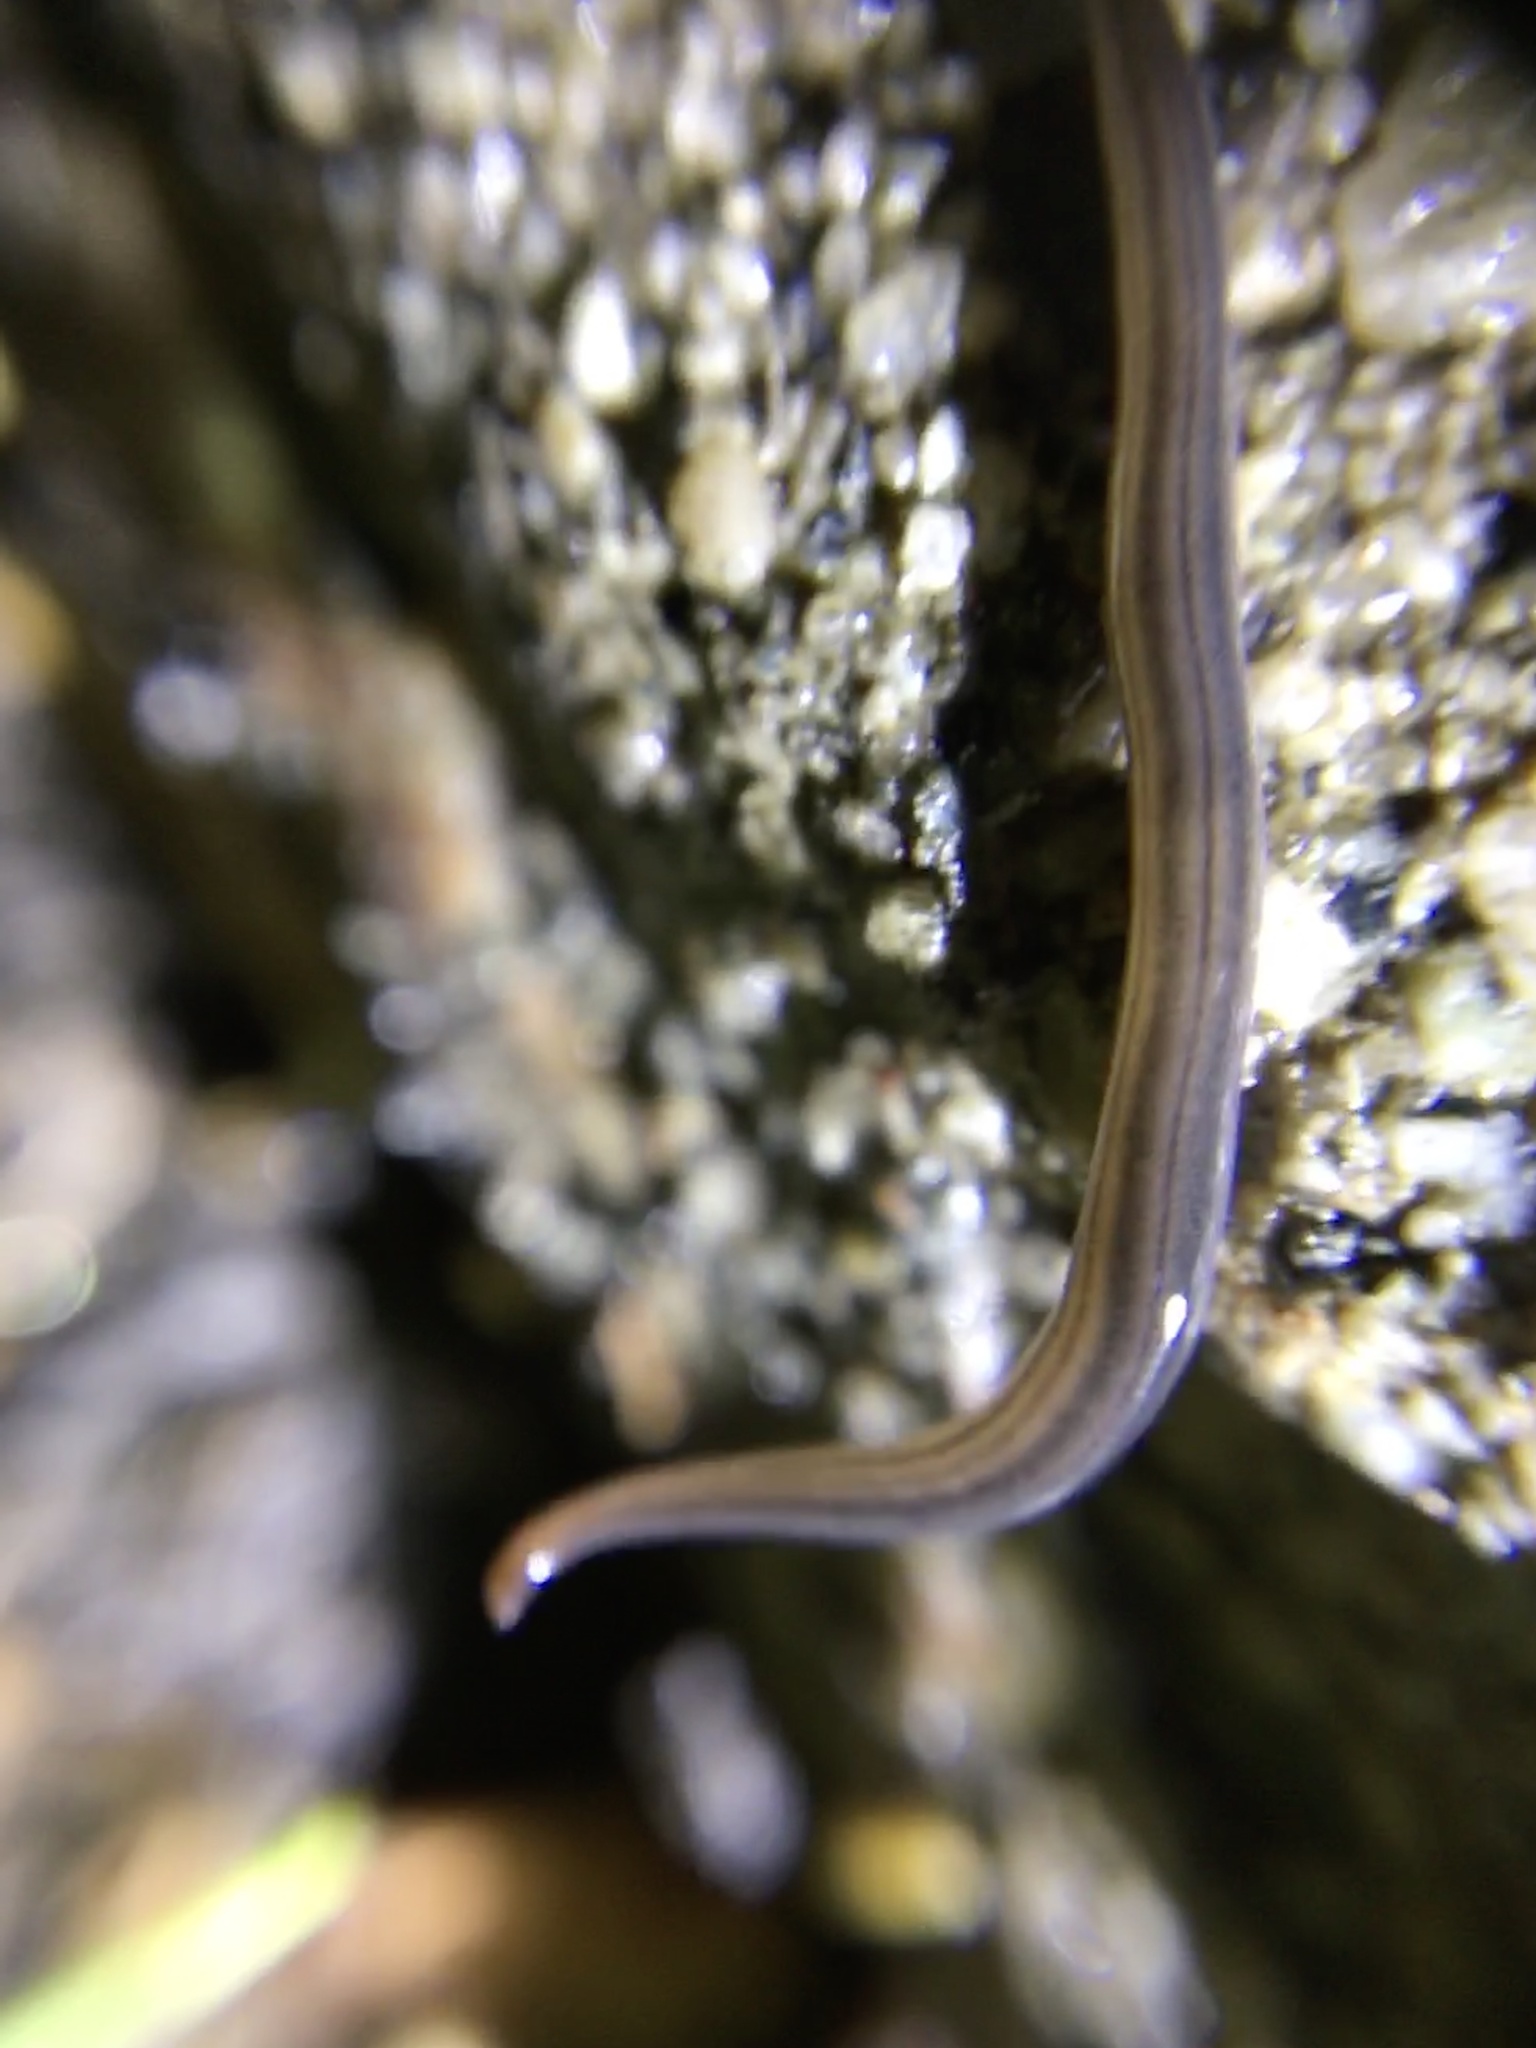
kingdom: Animalia
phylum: Platyhelminthes
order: Tricladida
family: Geoplanidae
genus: Endeavouria
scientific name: Endeavouria septemlineata
